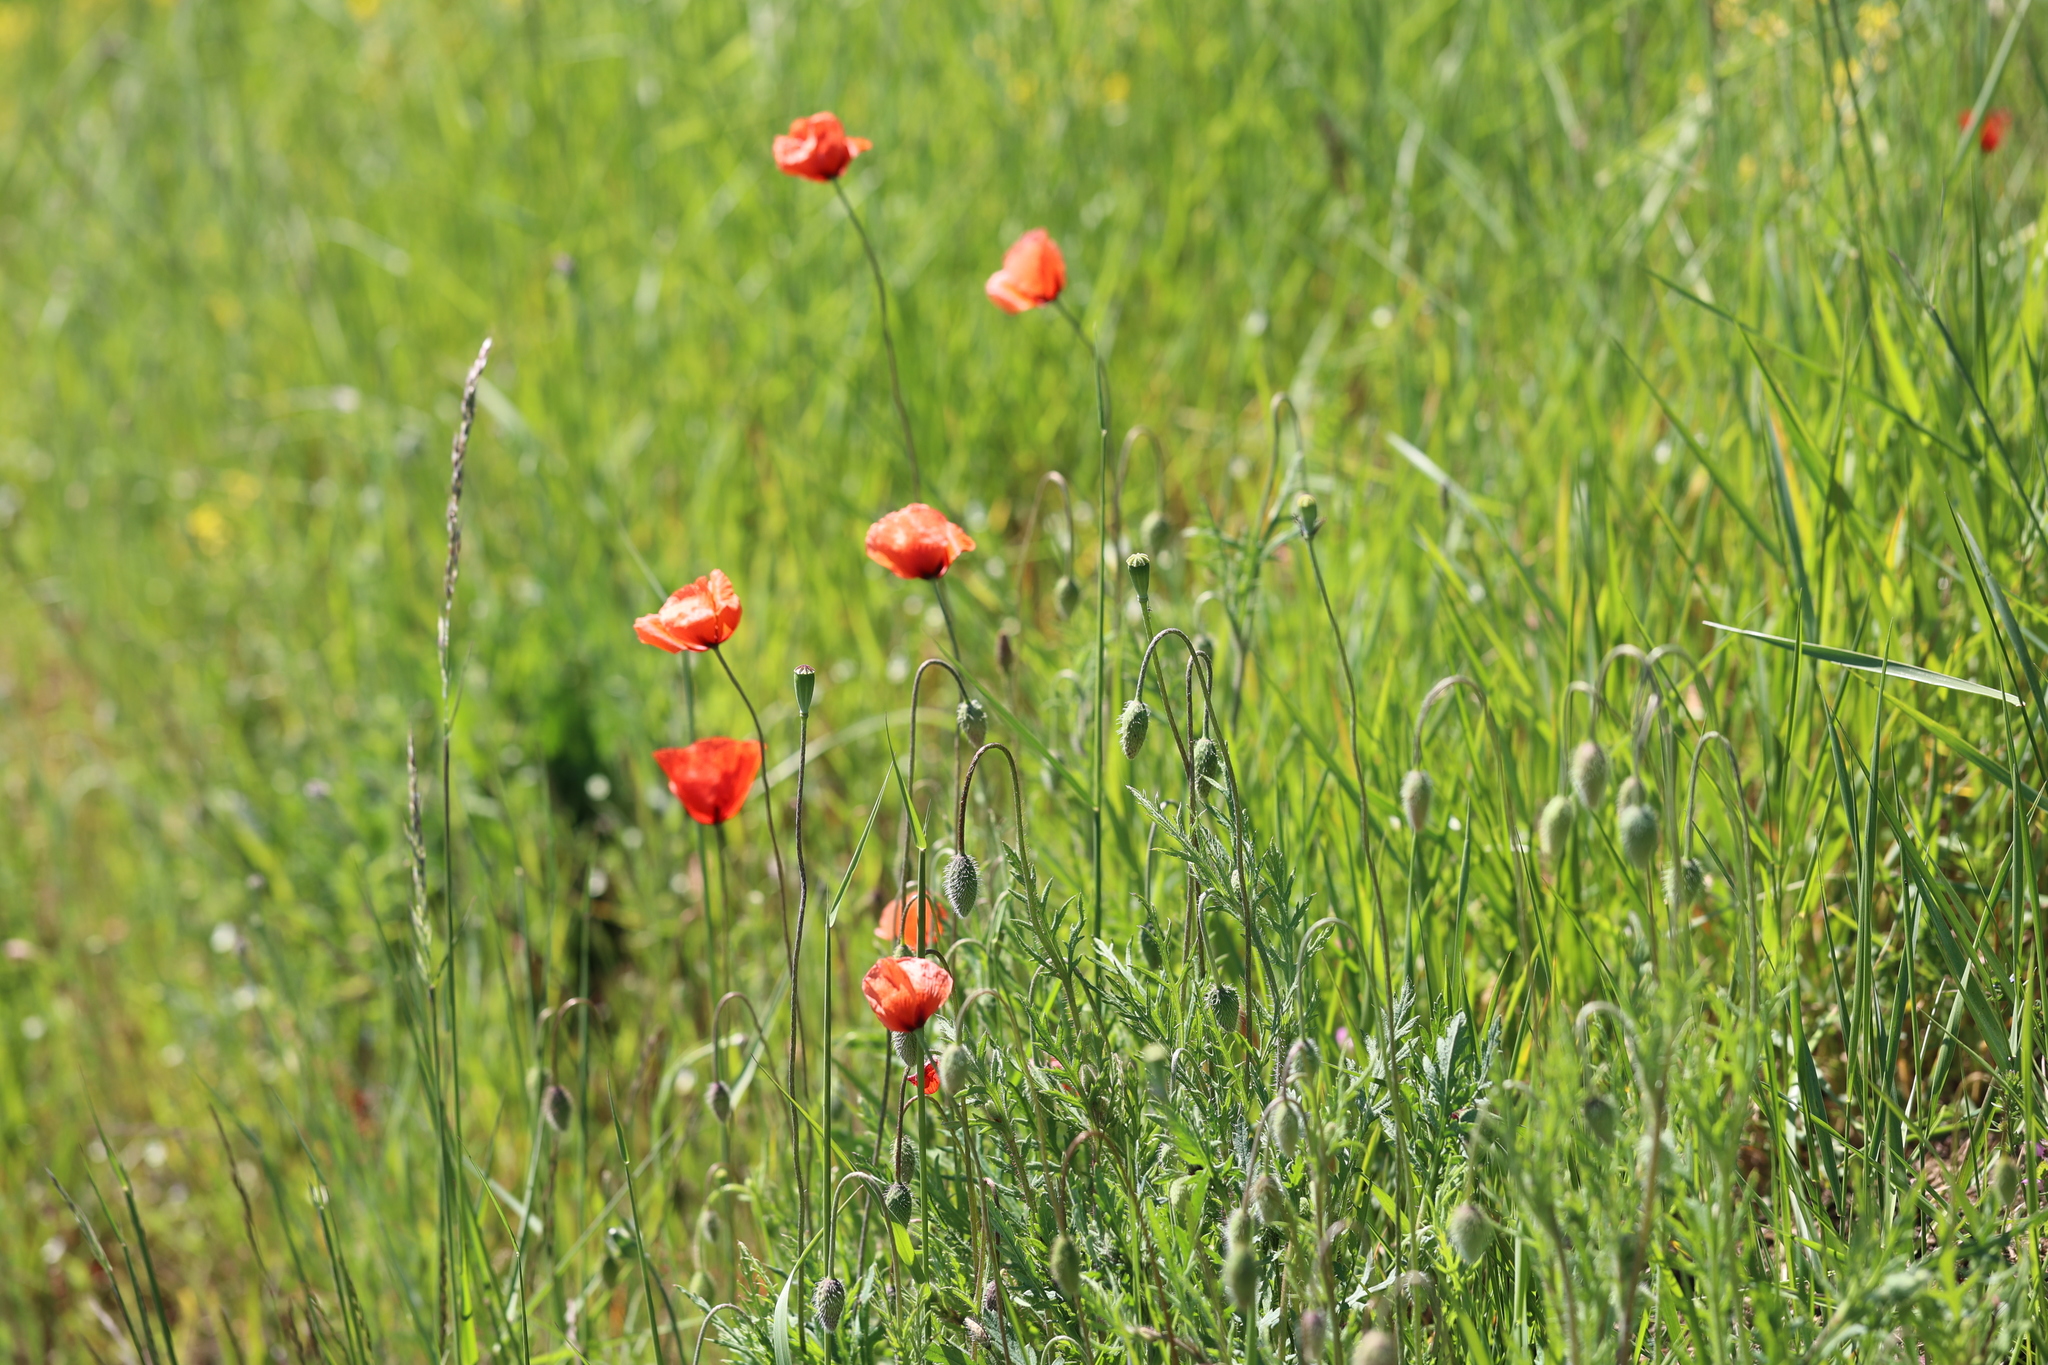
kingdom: Plantae
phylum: Tracheophyta
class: Magnoliopsida
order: Ranunculales
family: Papaveraceae
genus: Papaver
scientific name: Papaver rhoeas
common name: Corn poppy
